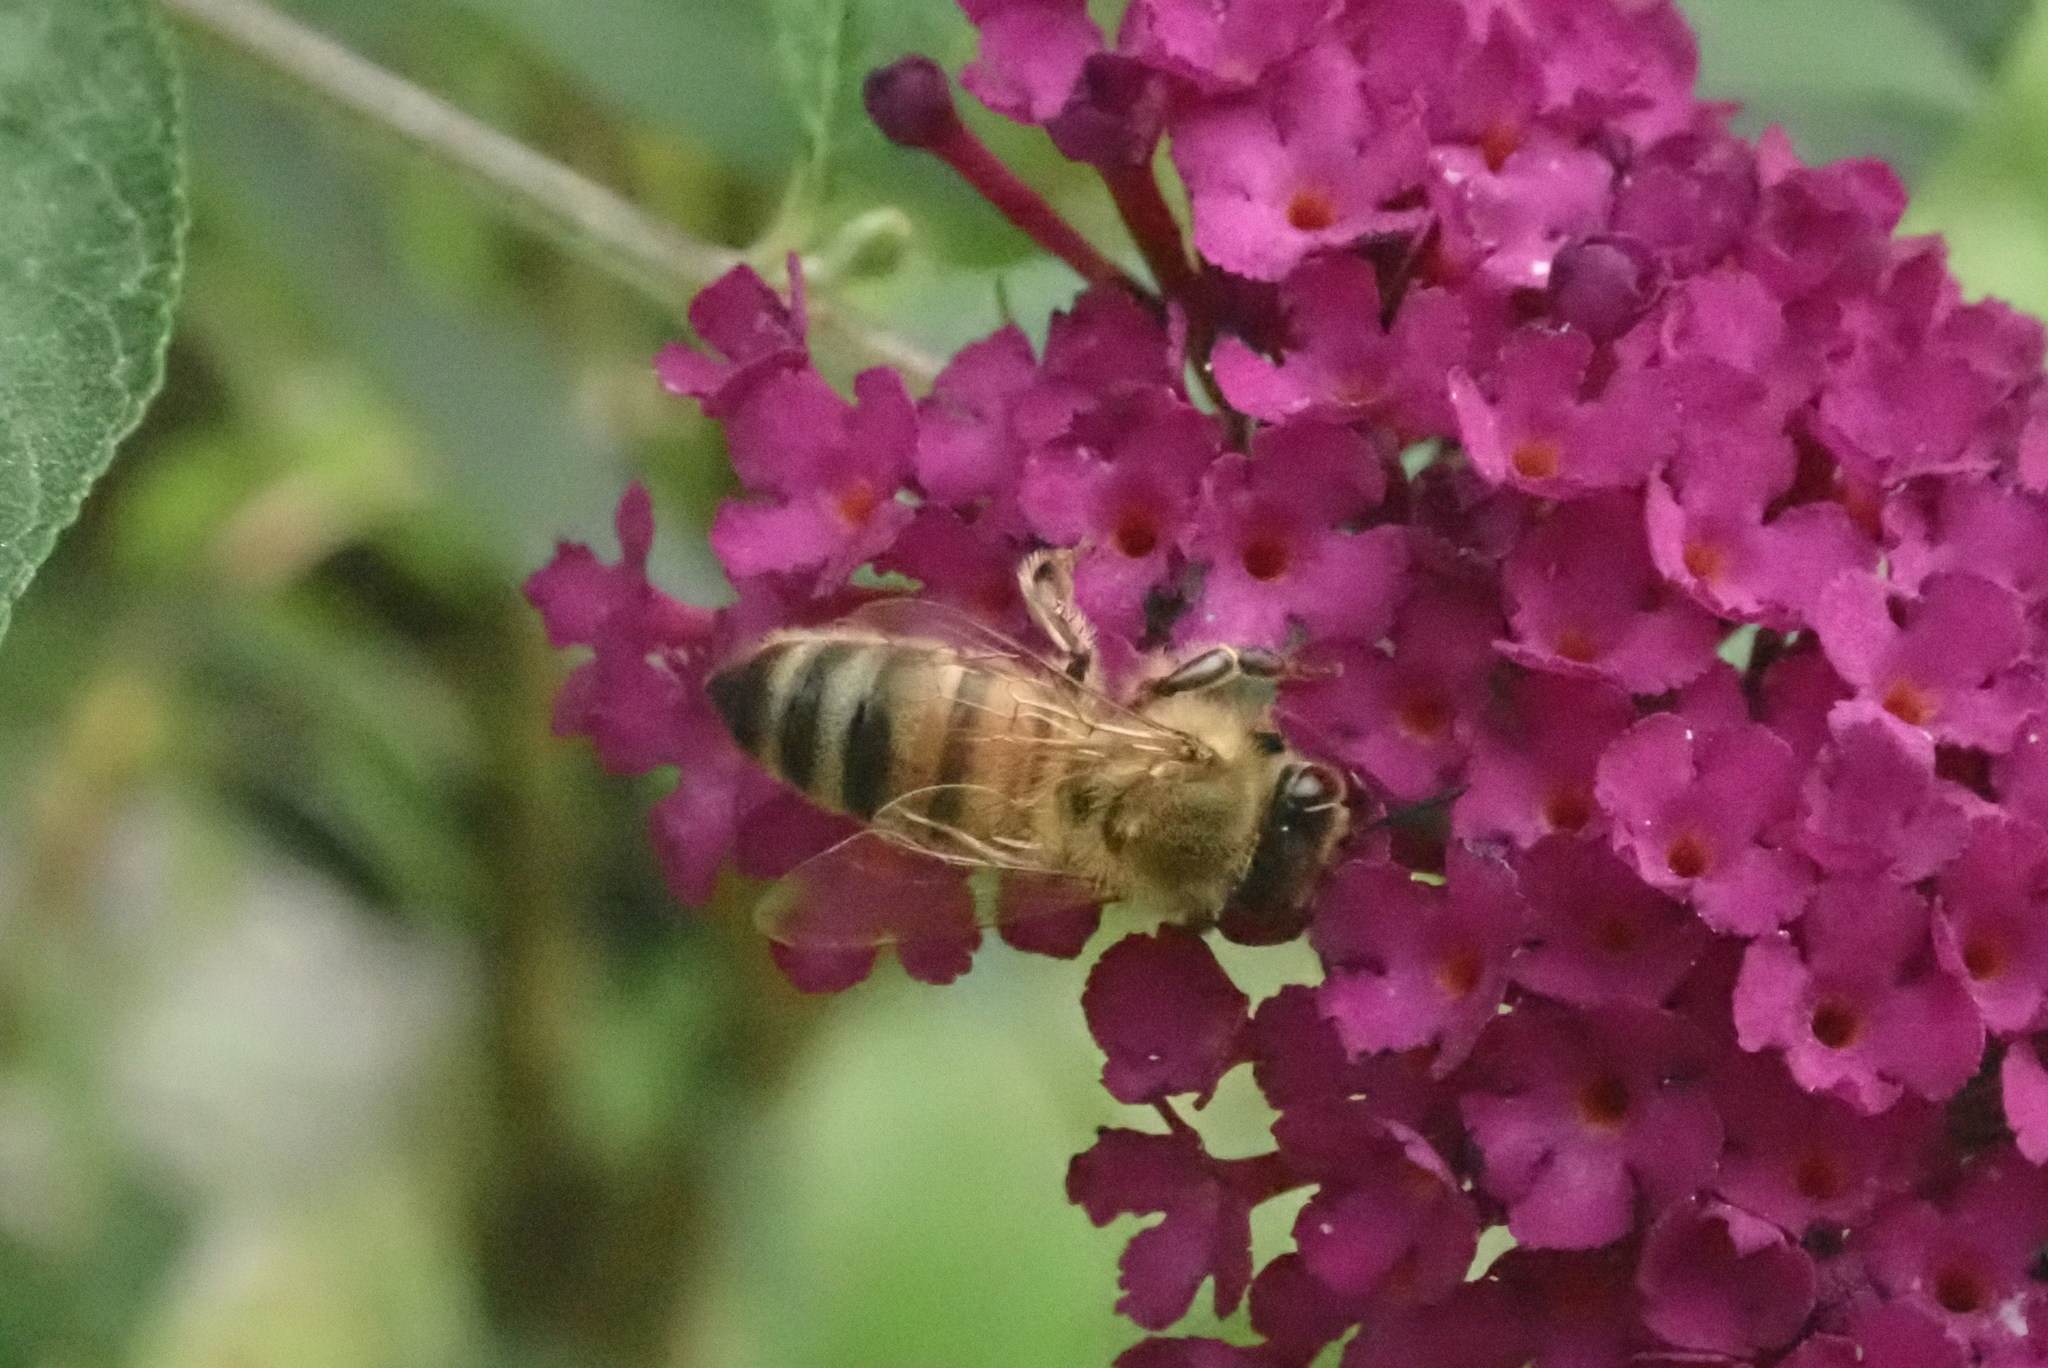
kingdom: Animalia
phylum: Arthropoda
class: Insecta
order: Hymenoptera
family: Apidae
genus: Apis
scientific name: Apis mellifera
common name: Honey bee
